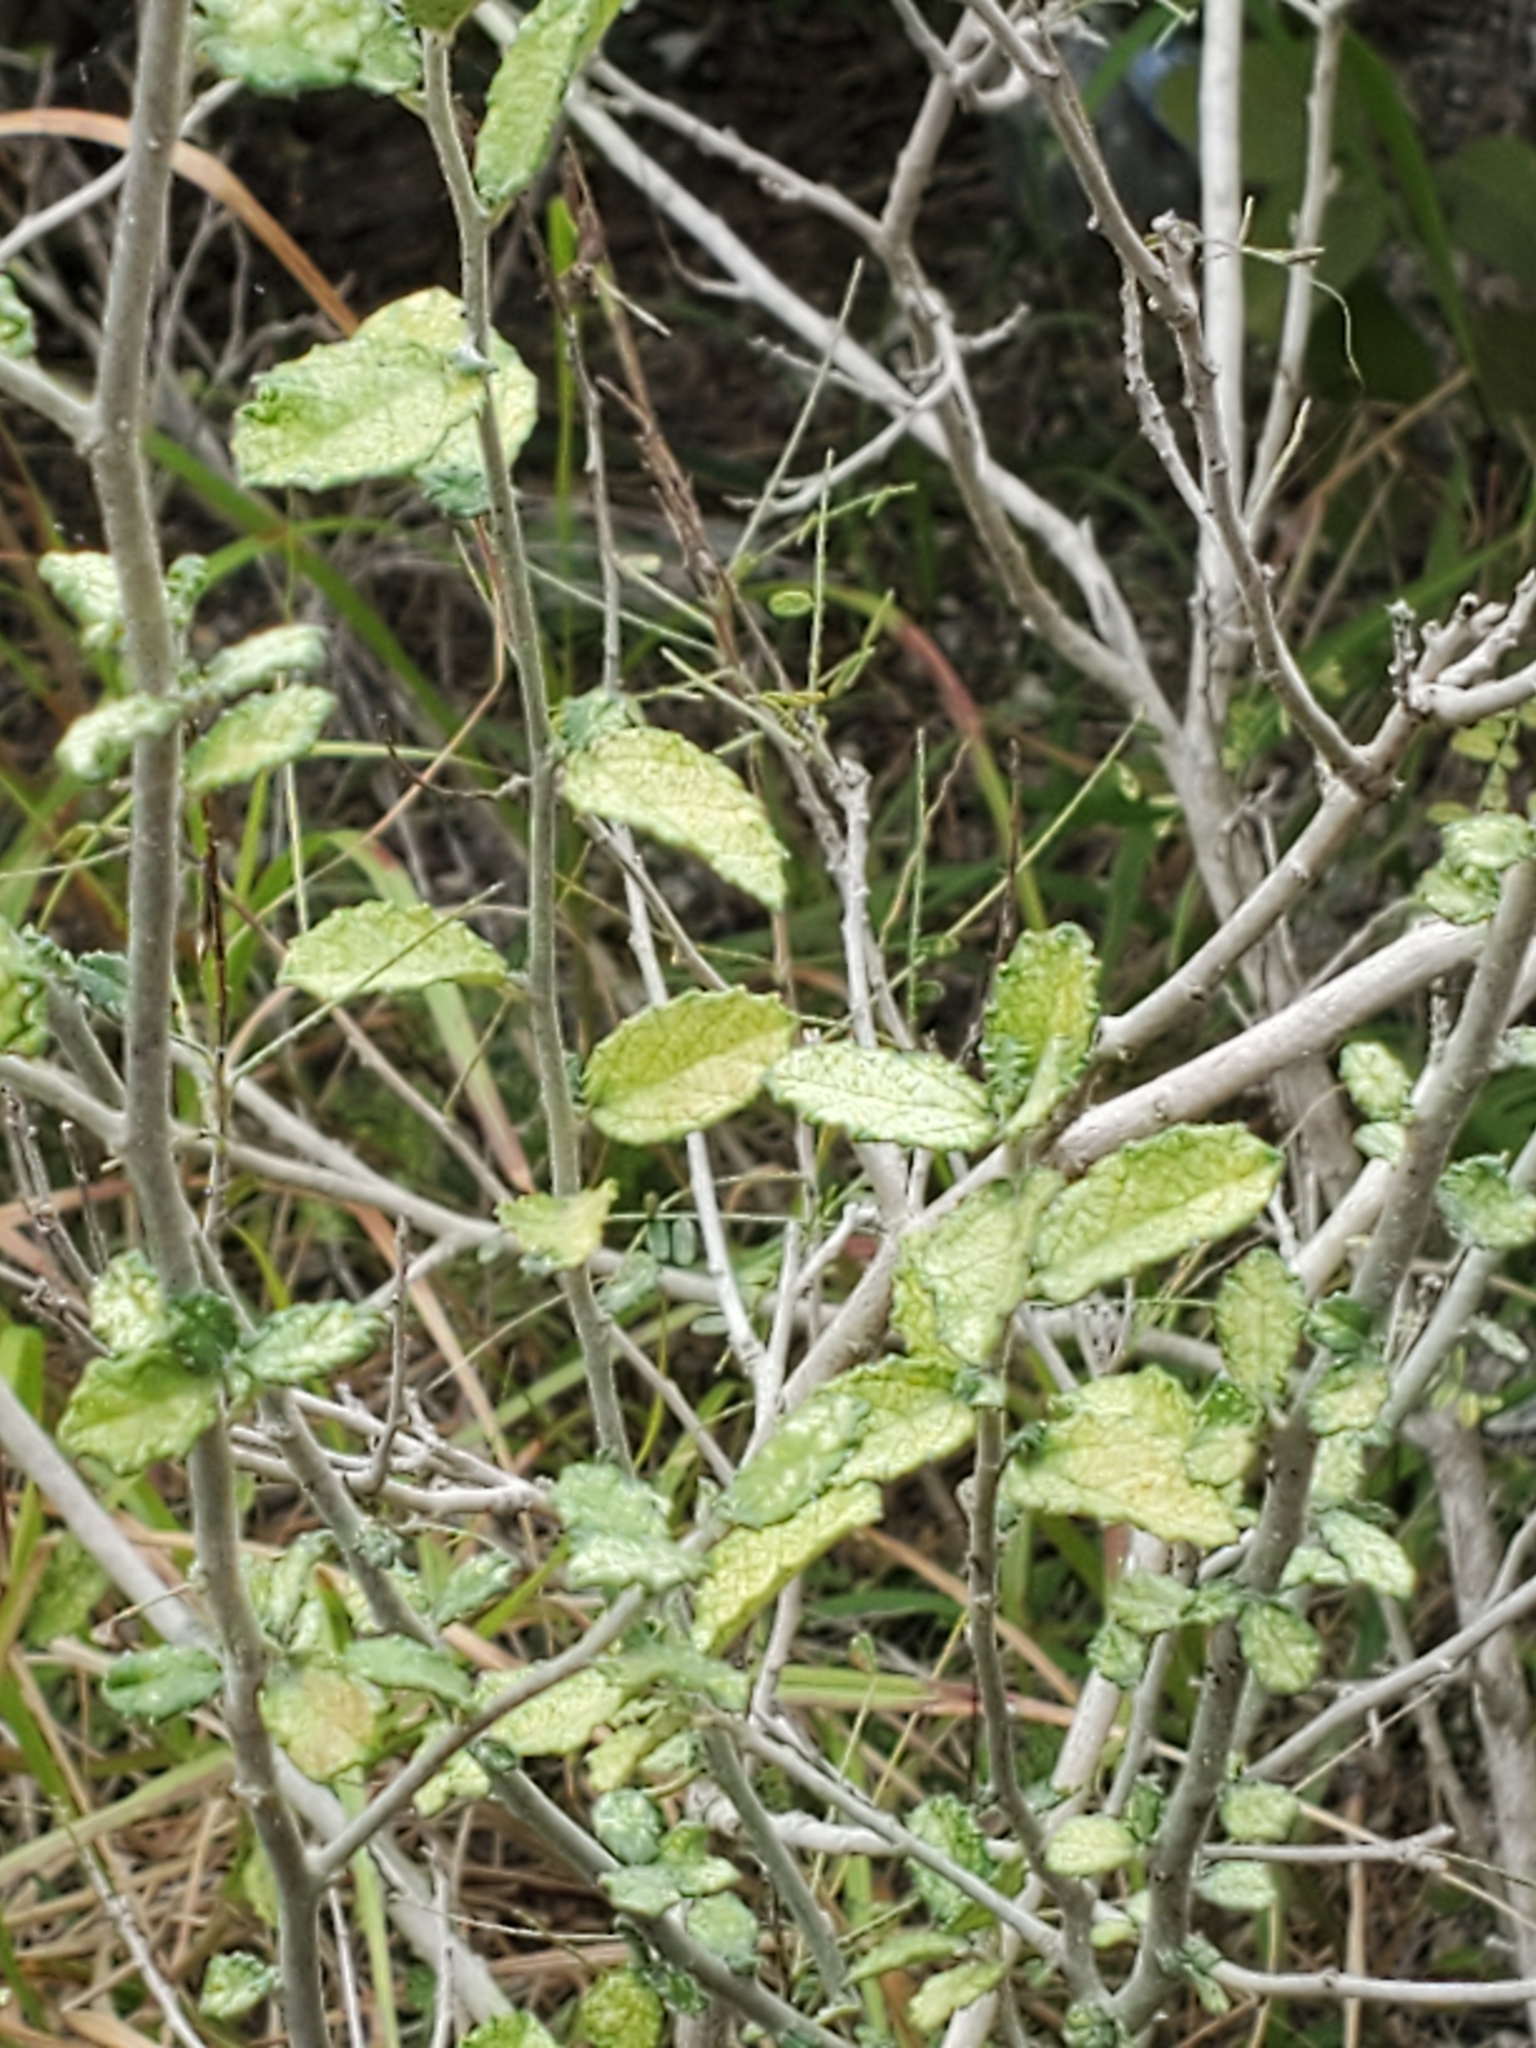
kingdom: Plantae
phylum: Tracheophyta
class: Magnoliopsida
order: Malpighiales
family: Euphorbiaceae
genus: Bernardia
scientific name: Bernardia myricifolia
